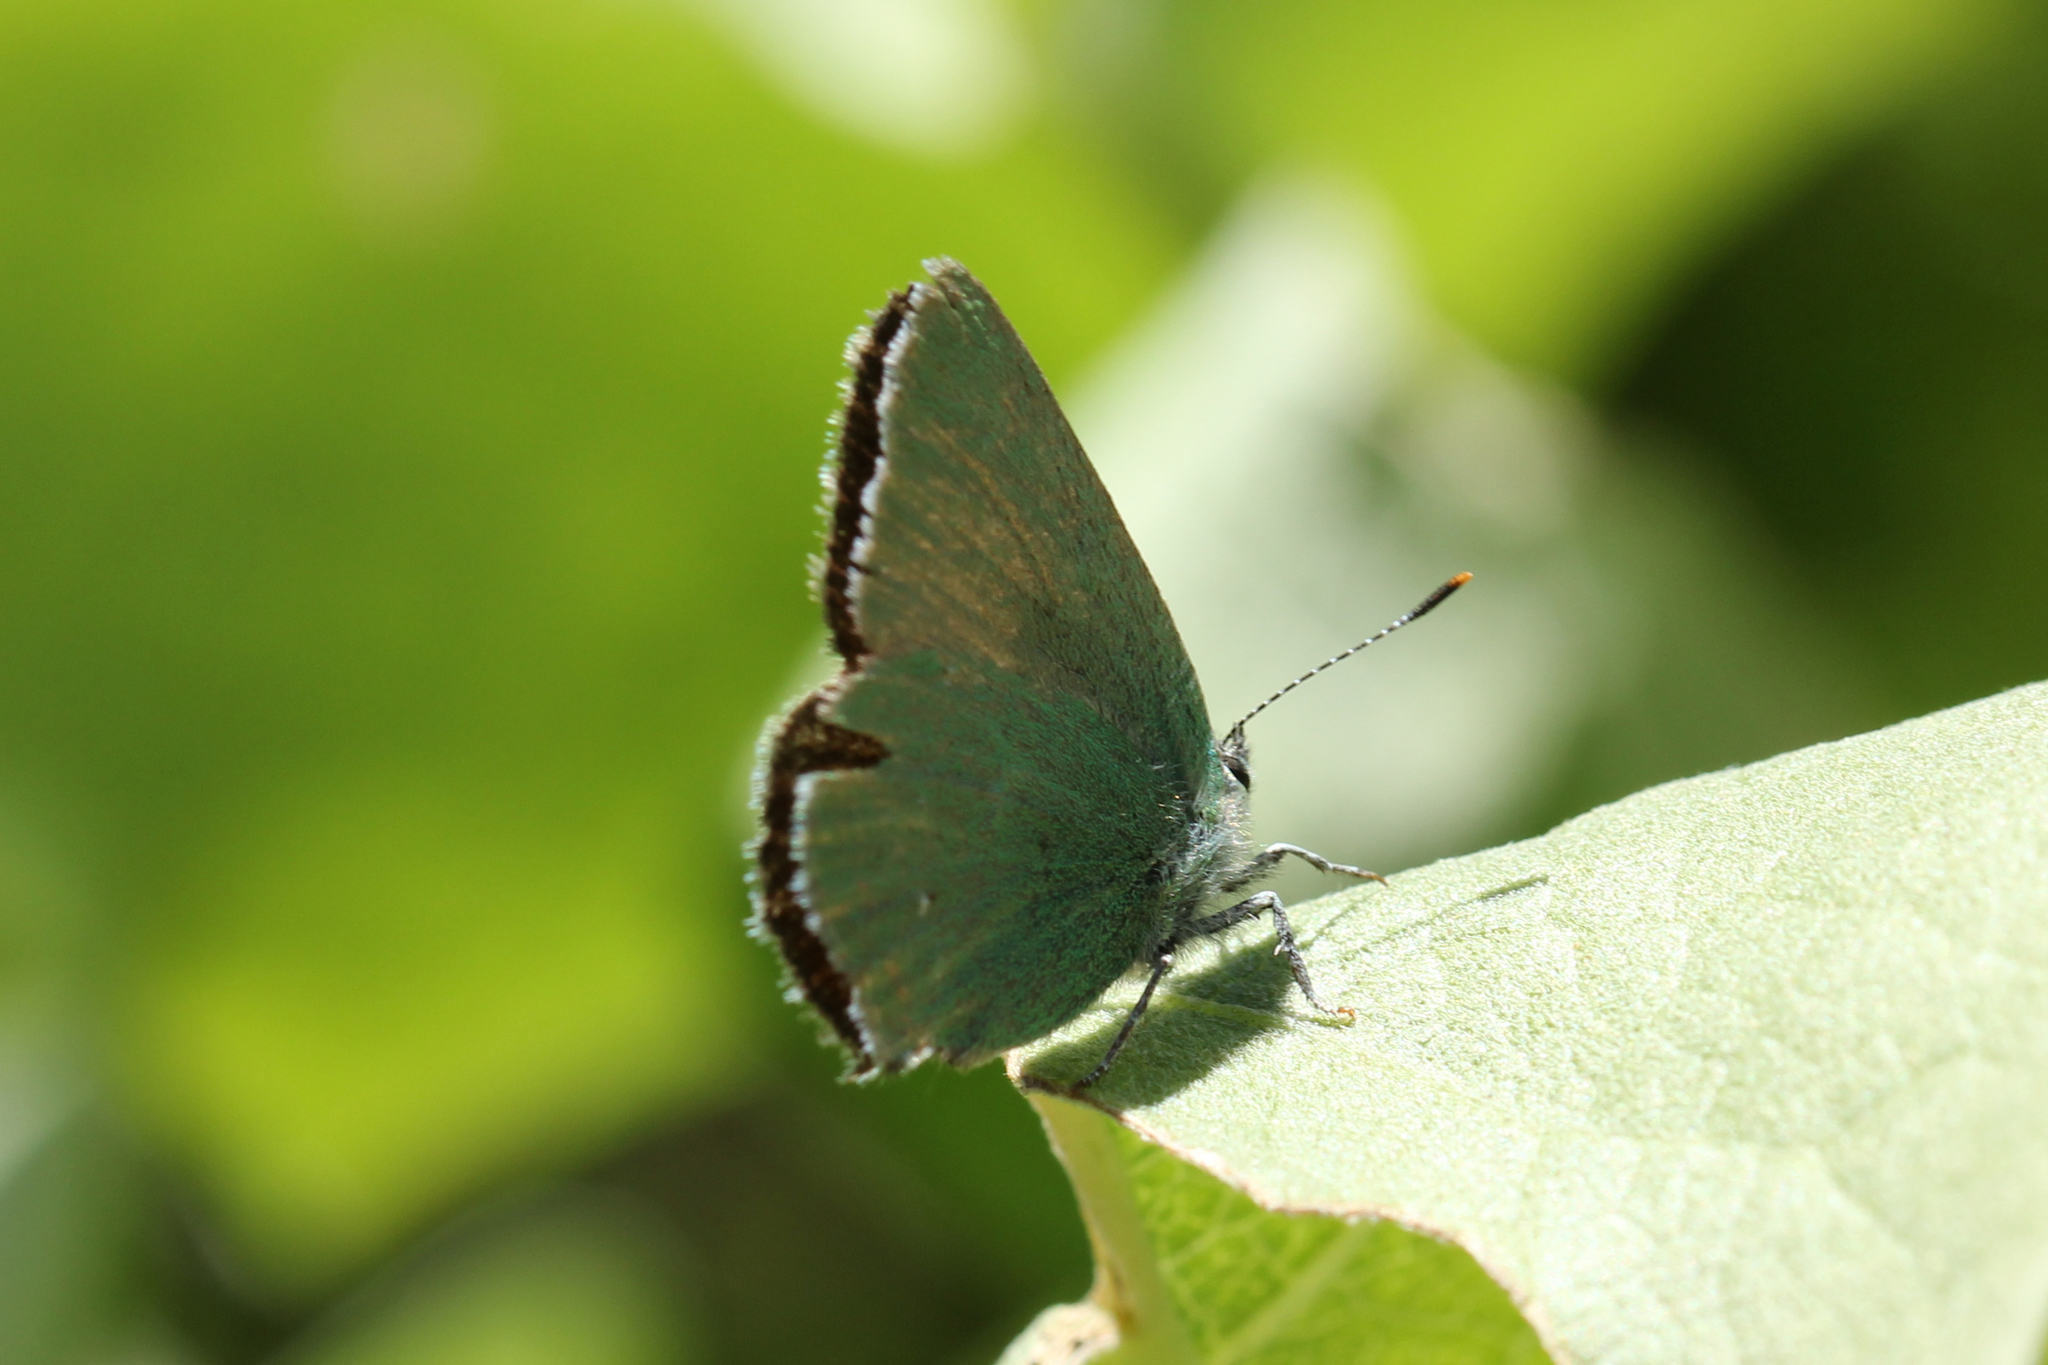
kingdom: Animalia
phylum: Arthropoda
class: Insecta
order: Lepidoptera
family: Lycaenidae
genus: Callophrys
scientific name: Callophrys affinis
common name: Western green hairstreak
